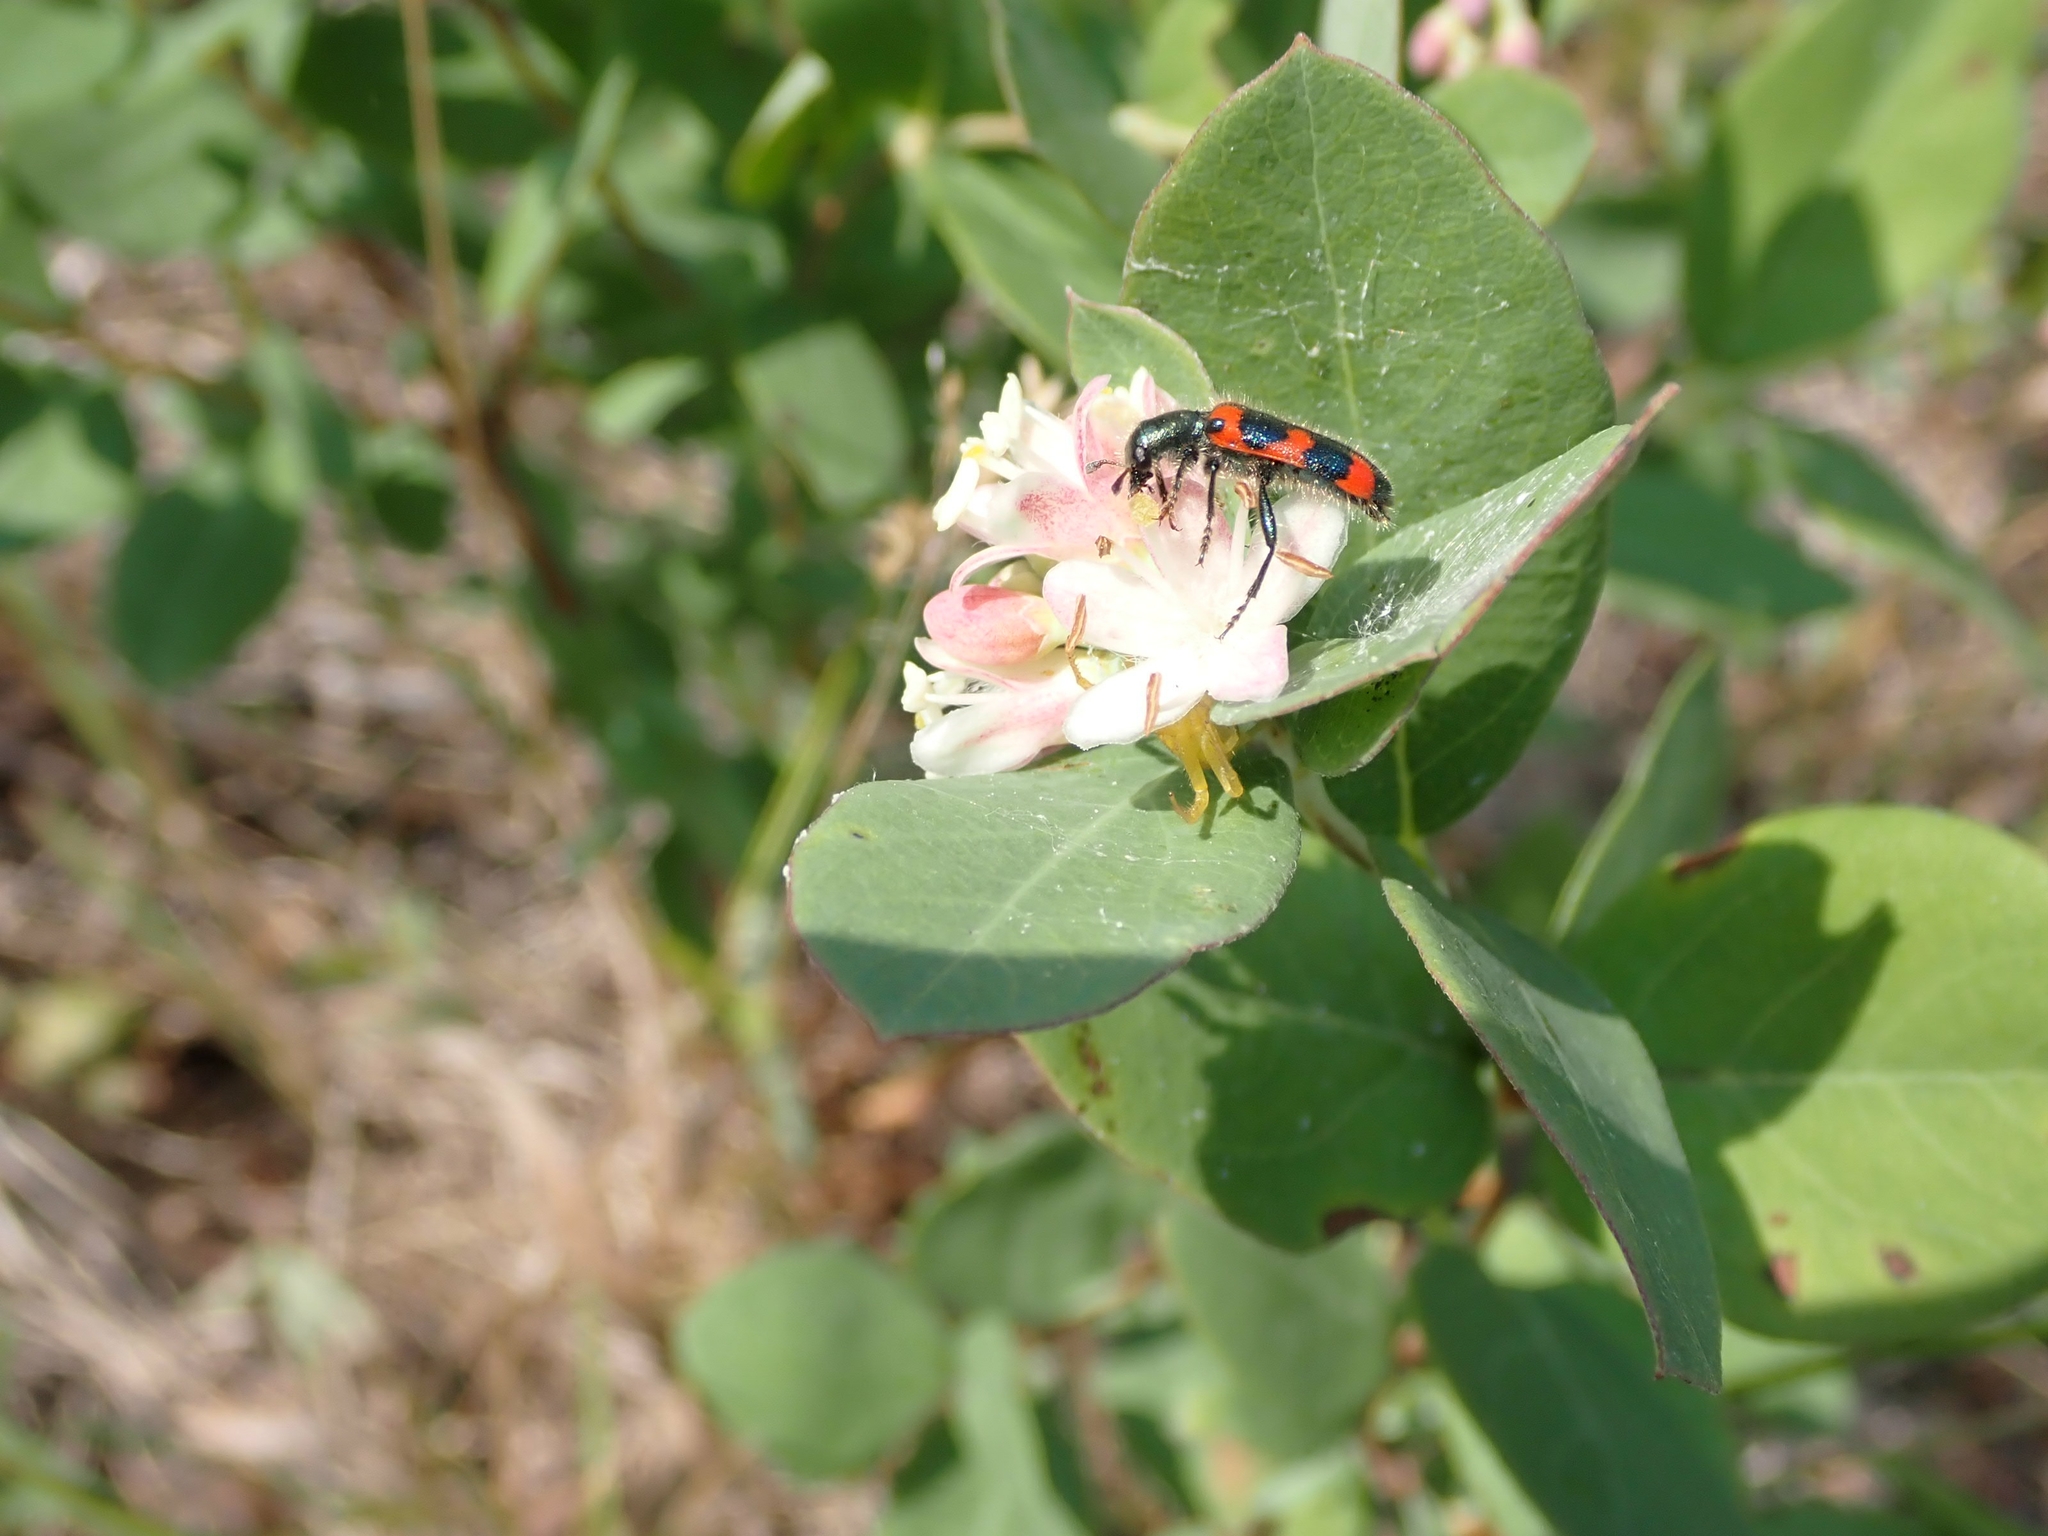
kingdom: Plantae
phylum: Tracheophyta
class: Magnoliopsida
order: Dipsacales
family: Caprifoliaceae
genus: Symphoricarpos
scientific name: Symphoricarpos occidentalis
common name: Wolfberry
